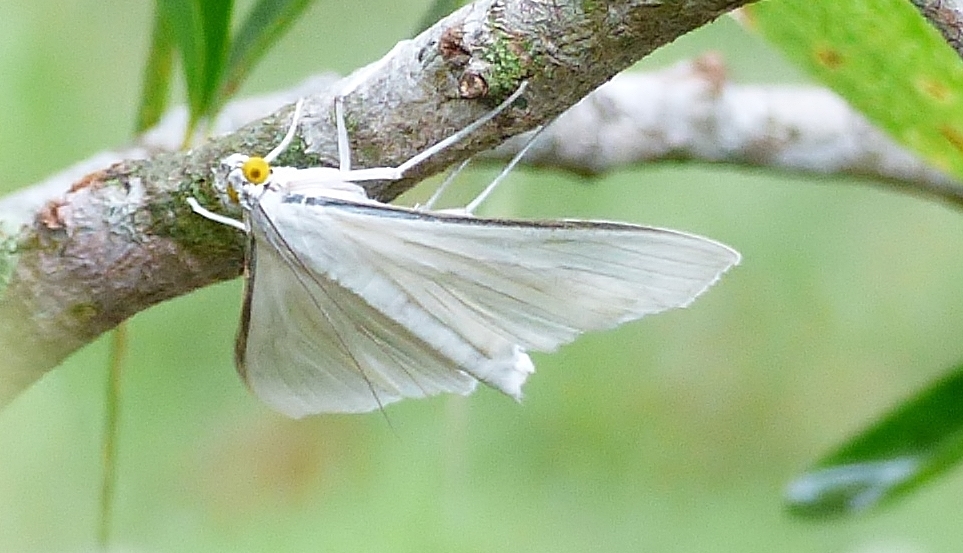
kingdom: Animalia
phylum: Arthropoda
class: Insecta
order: Lepidoptera
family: Crambidae
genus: Palpita
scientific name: Palpita flegia
